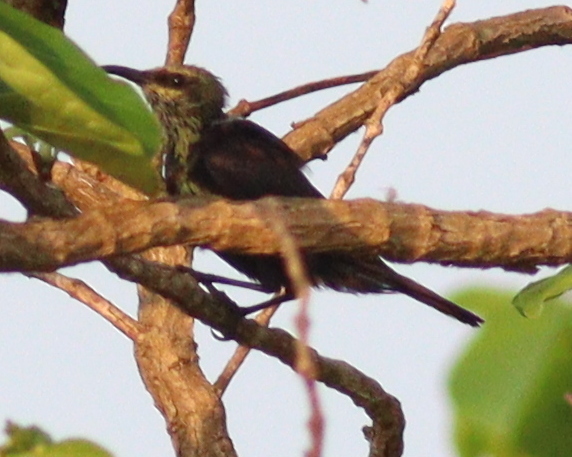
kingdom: Animalia
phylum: Chordata
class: Aves
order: Passeriformes
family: Nectariniidae
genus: Cinnyris
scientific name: Cinnyris cupreus
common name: Copper sunbird
